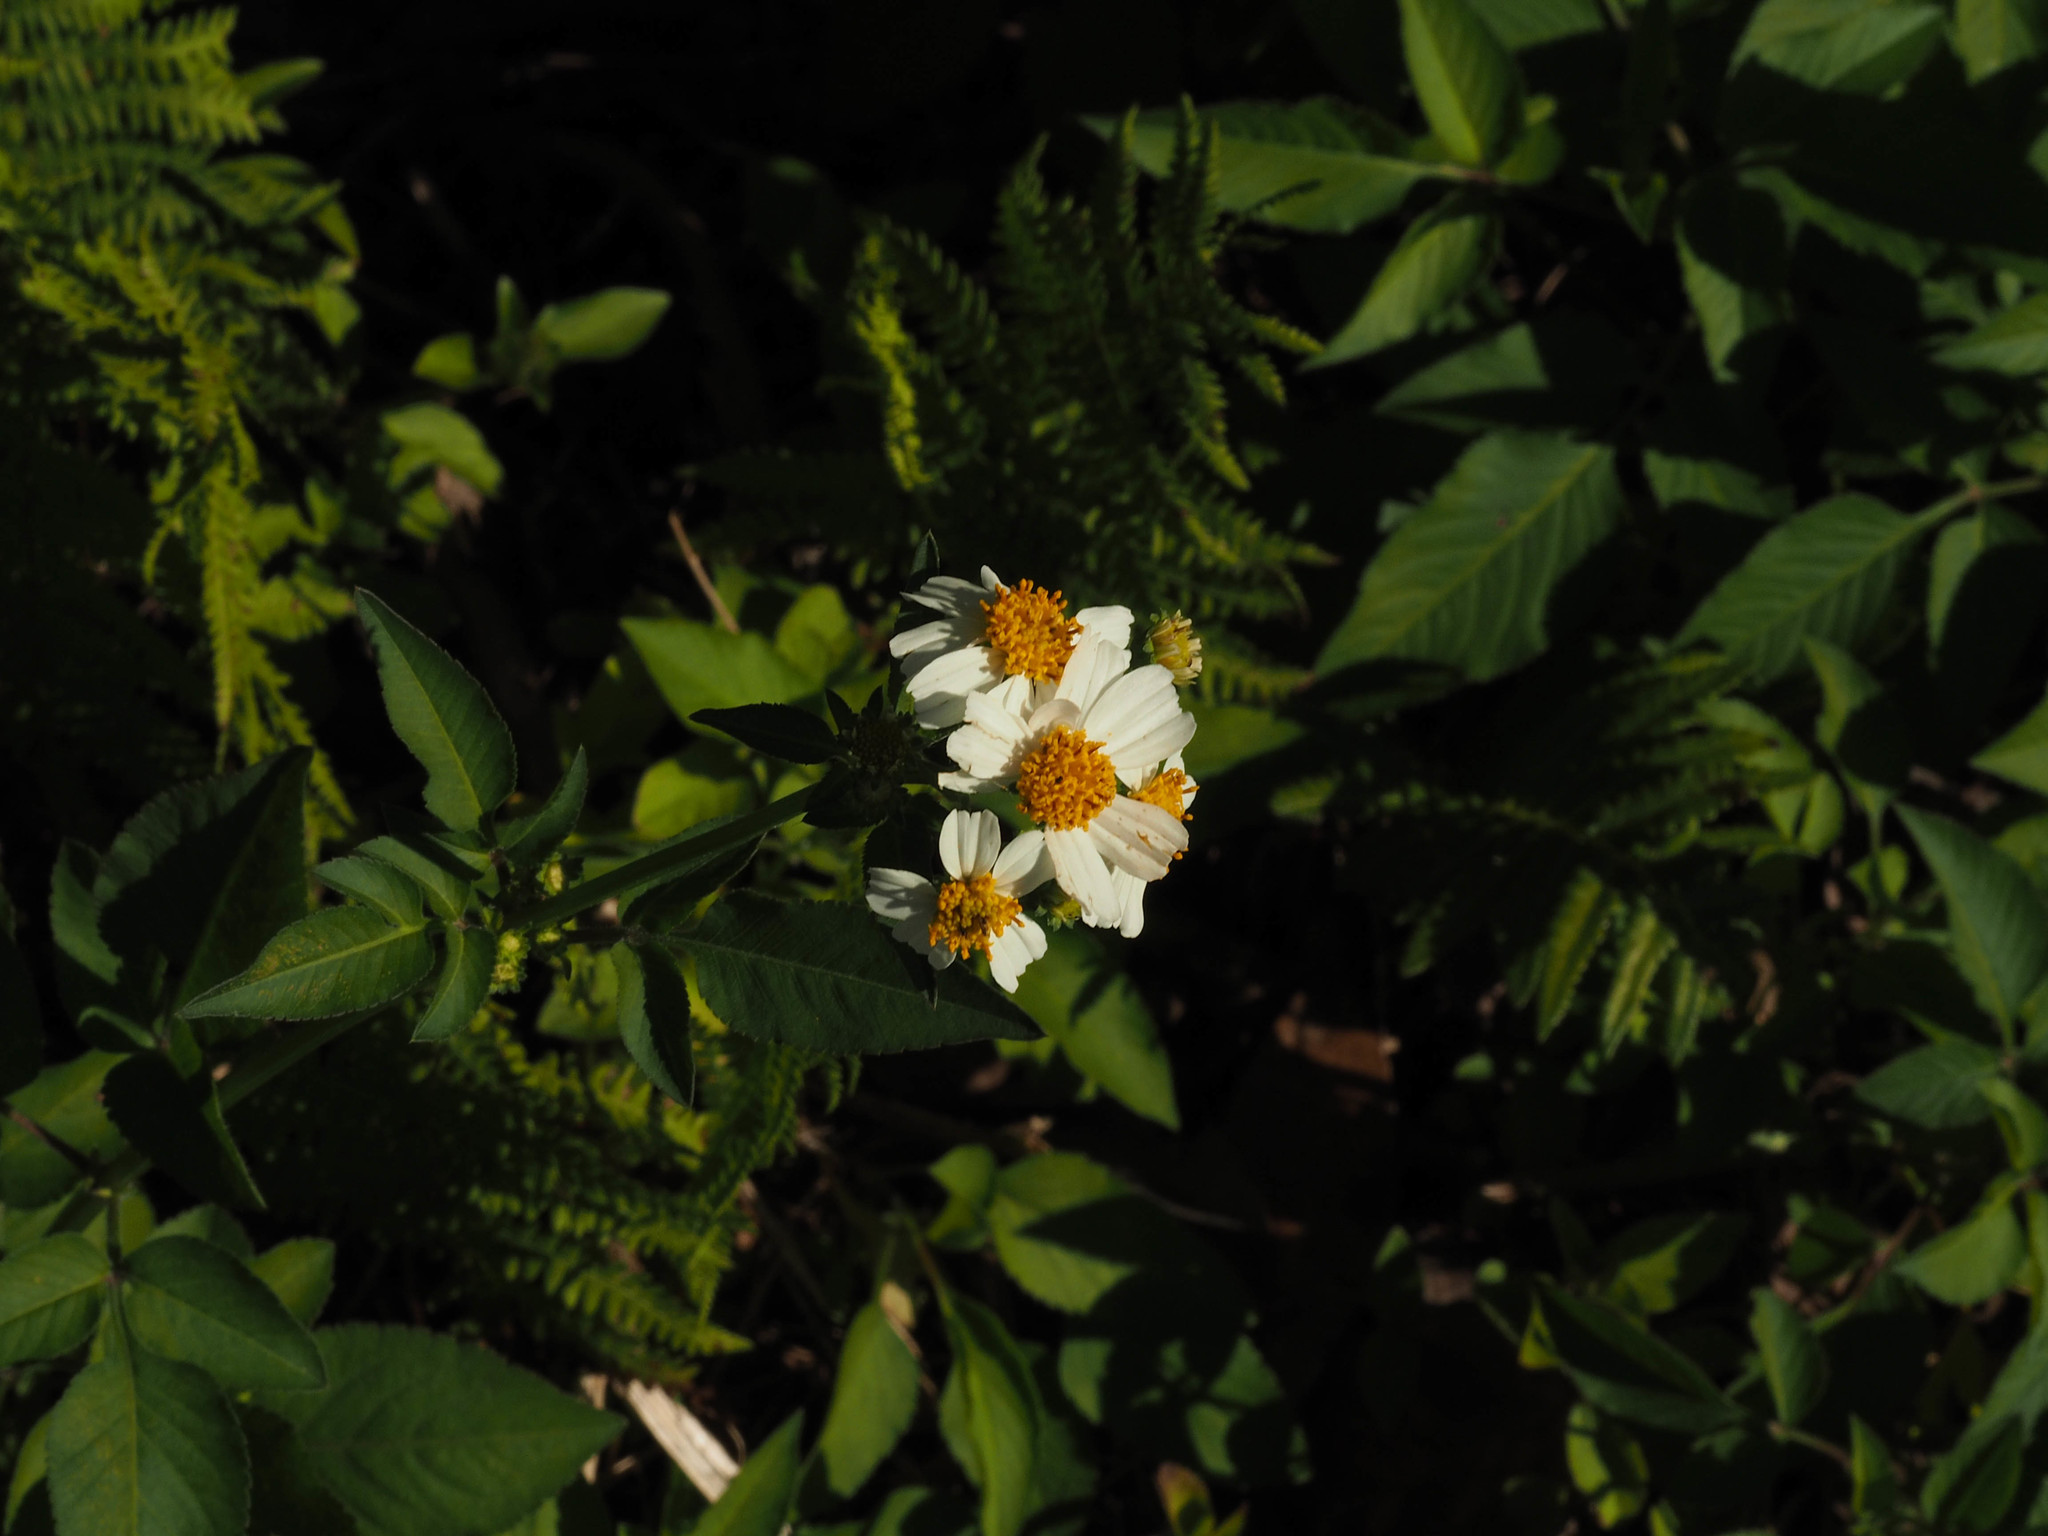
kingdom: Plantae
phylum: Tracheophyta
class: Magnoliopsida
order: Asterales
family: Asteraceae
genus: Bidens
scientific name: Bidens alba
